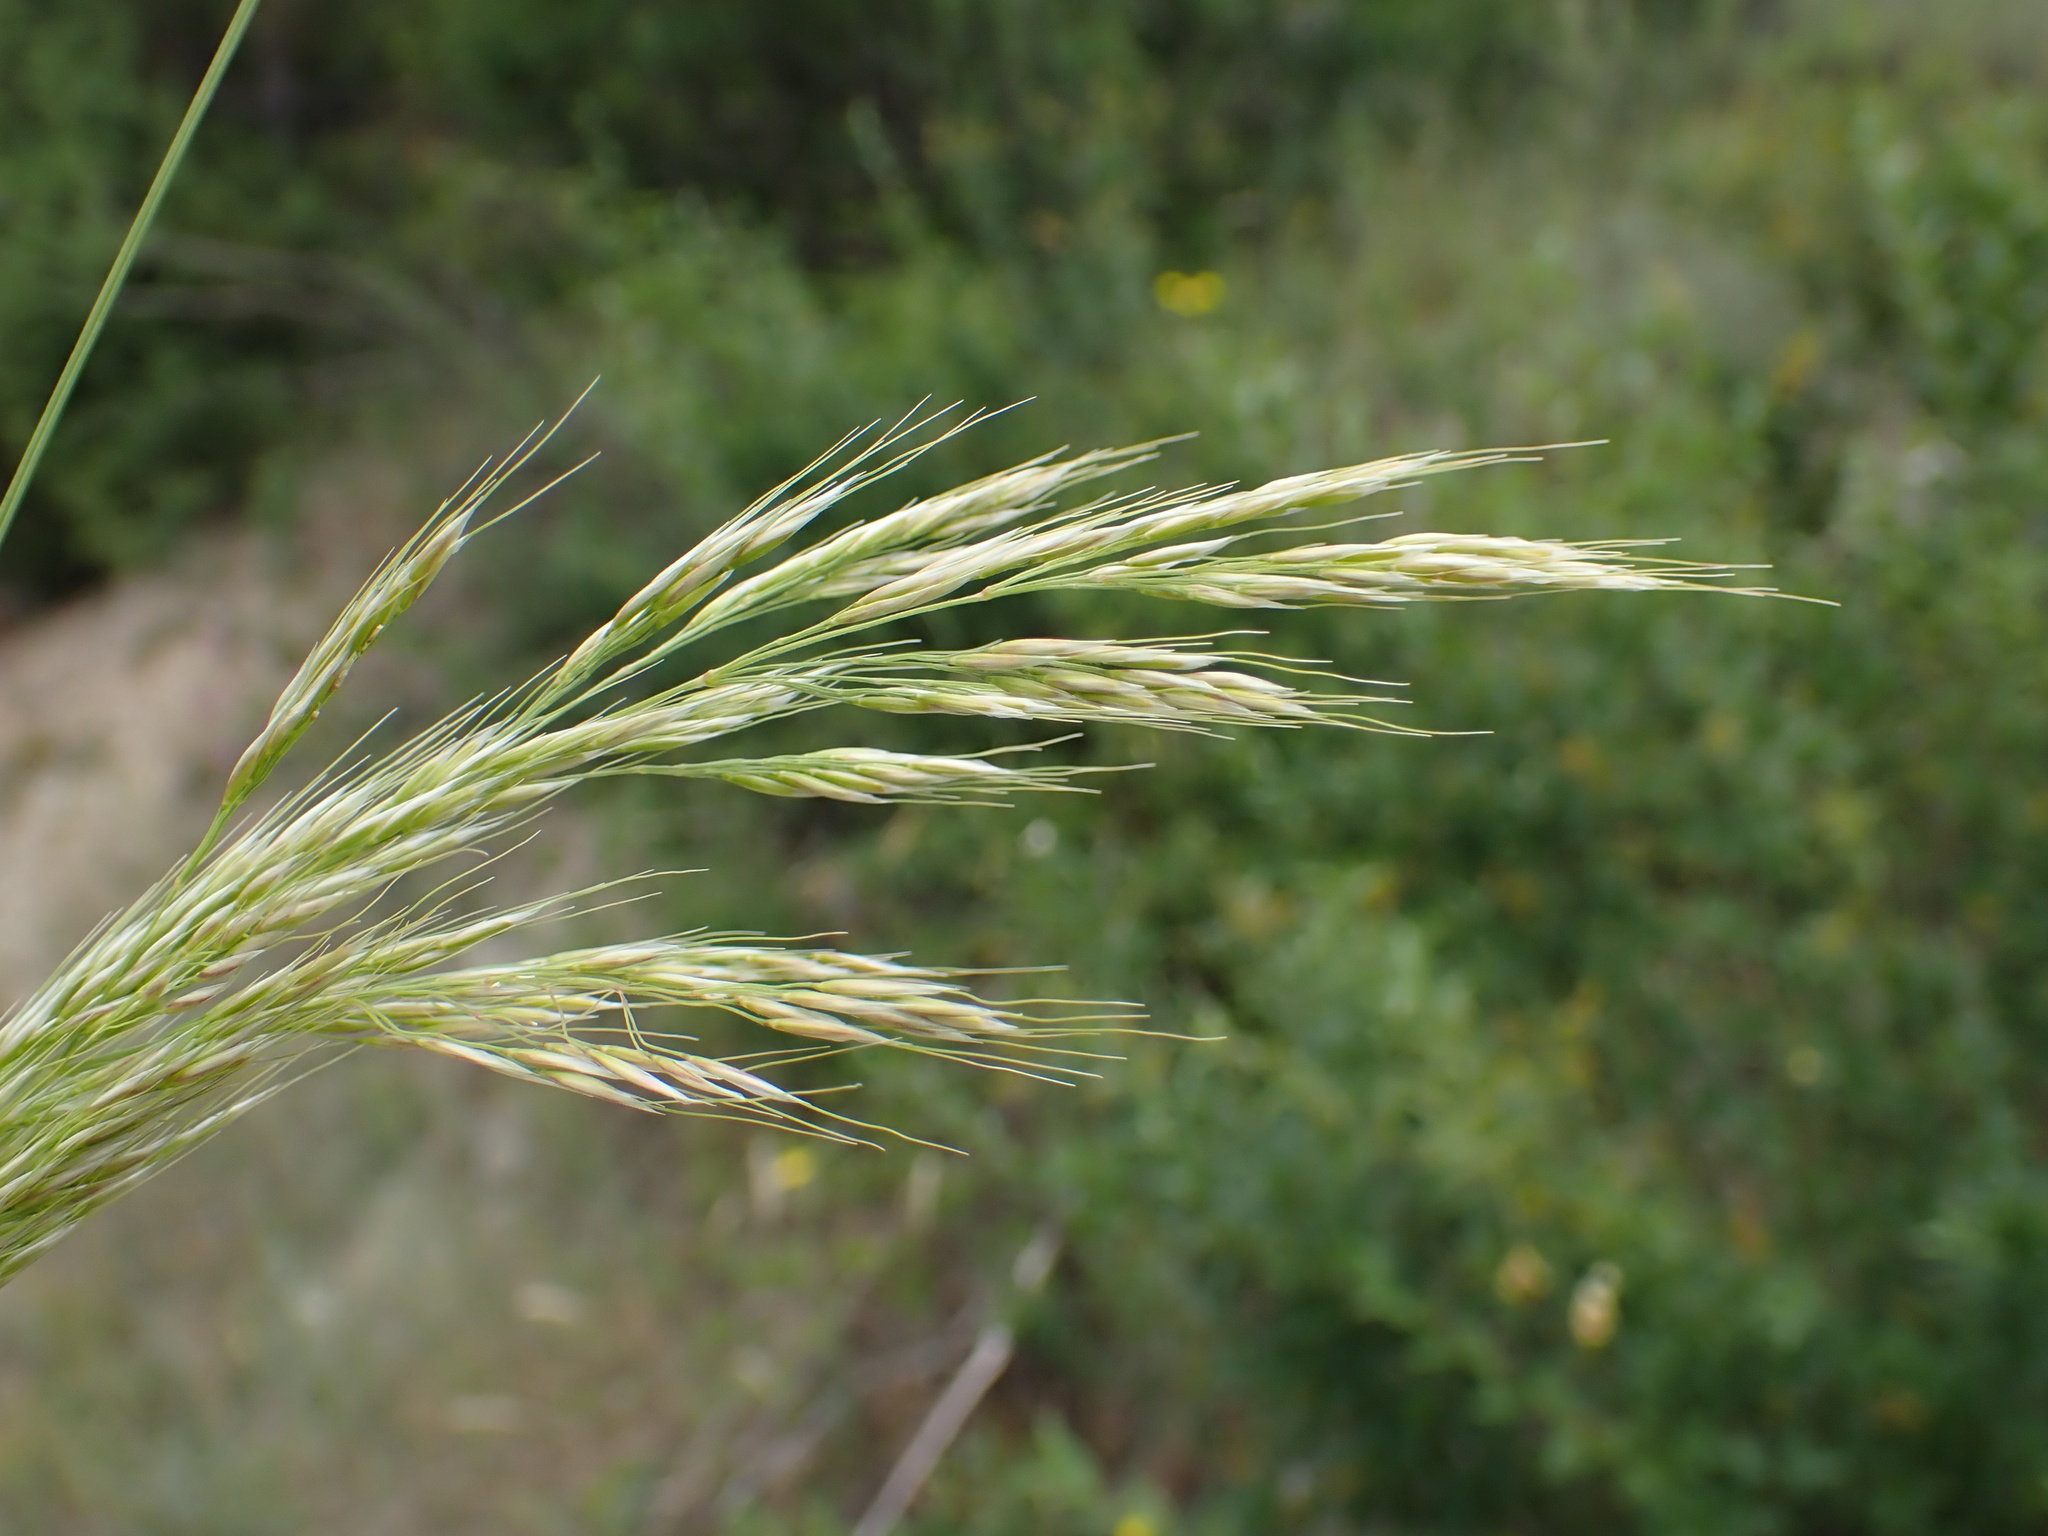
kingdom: Plantae
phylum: Tracheophyta
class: Liliopsida
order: Poales
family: Poaceae
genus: Achnatherum
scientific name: Achnatherum calamagrostis
